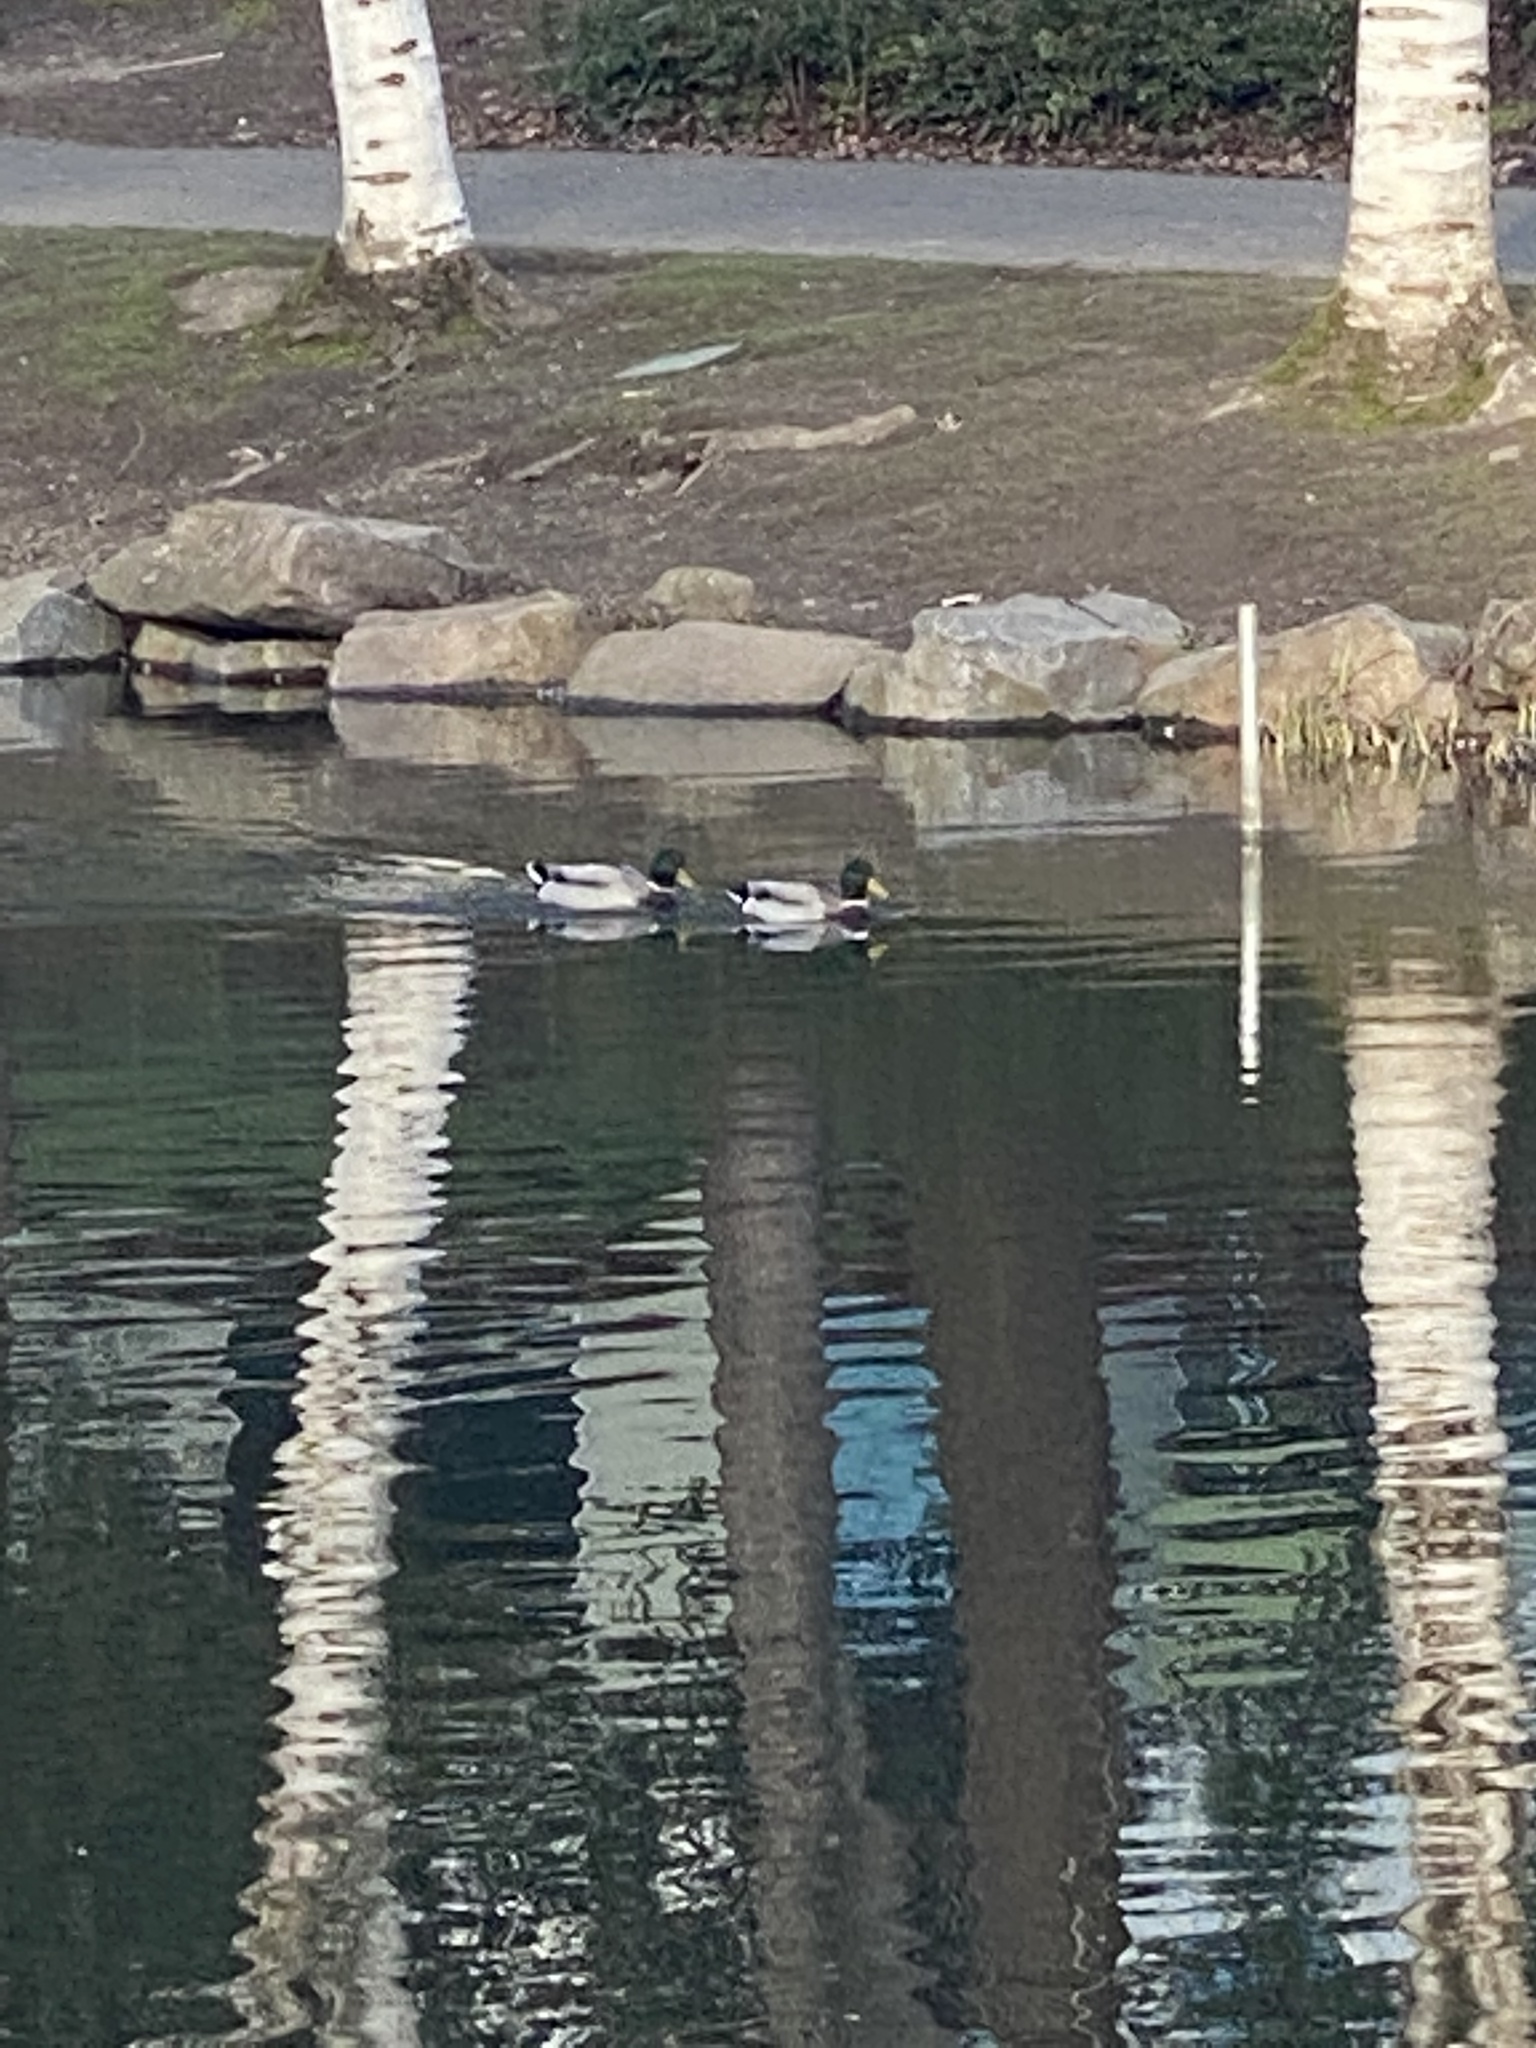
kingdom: Animalia
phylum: Chordata
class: Aves
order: Anseriformes
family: Anatidae
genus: Anas
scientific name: Anas platyrhynchos
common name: Mallard
